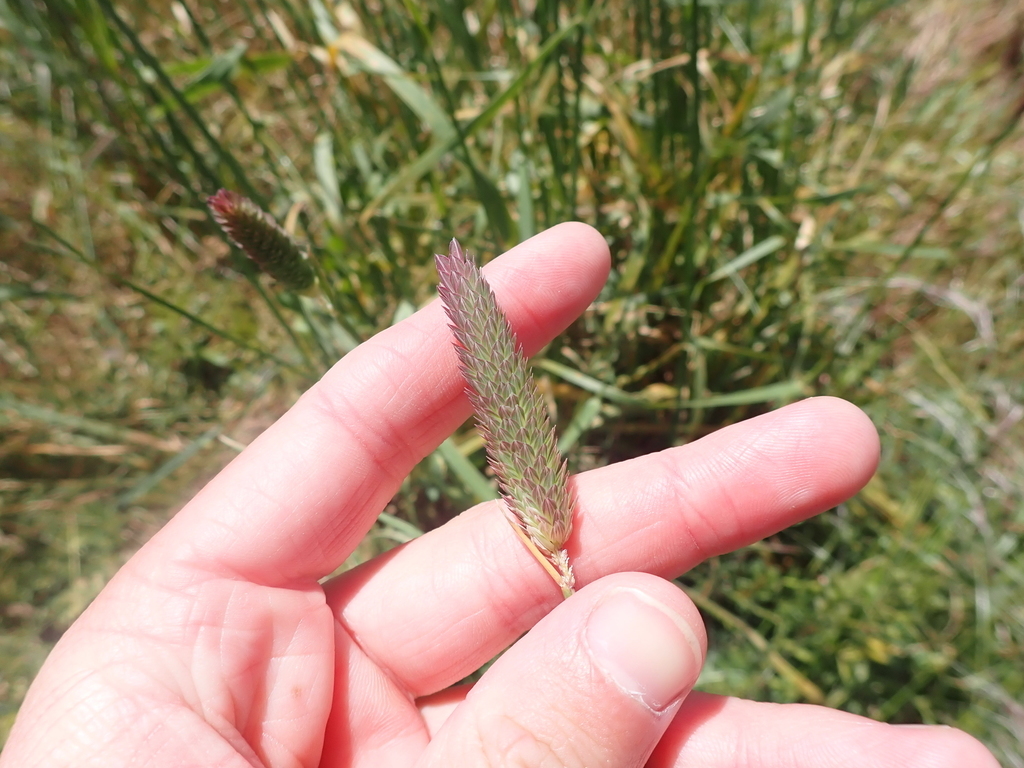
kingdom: Plantae
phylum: Tracheophyta
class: Liliopsida
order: Poales
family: Poaceae
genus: Phalaris
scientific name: Phalaris aquatica
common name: Bulbous canary-grass
